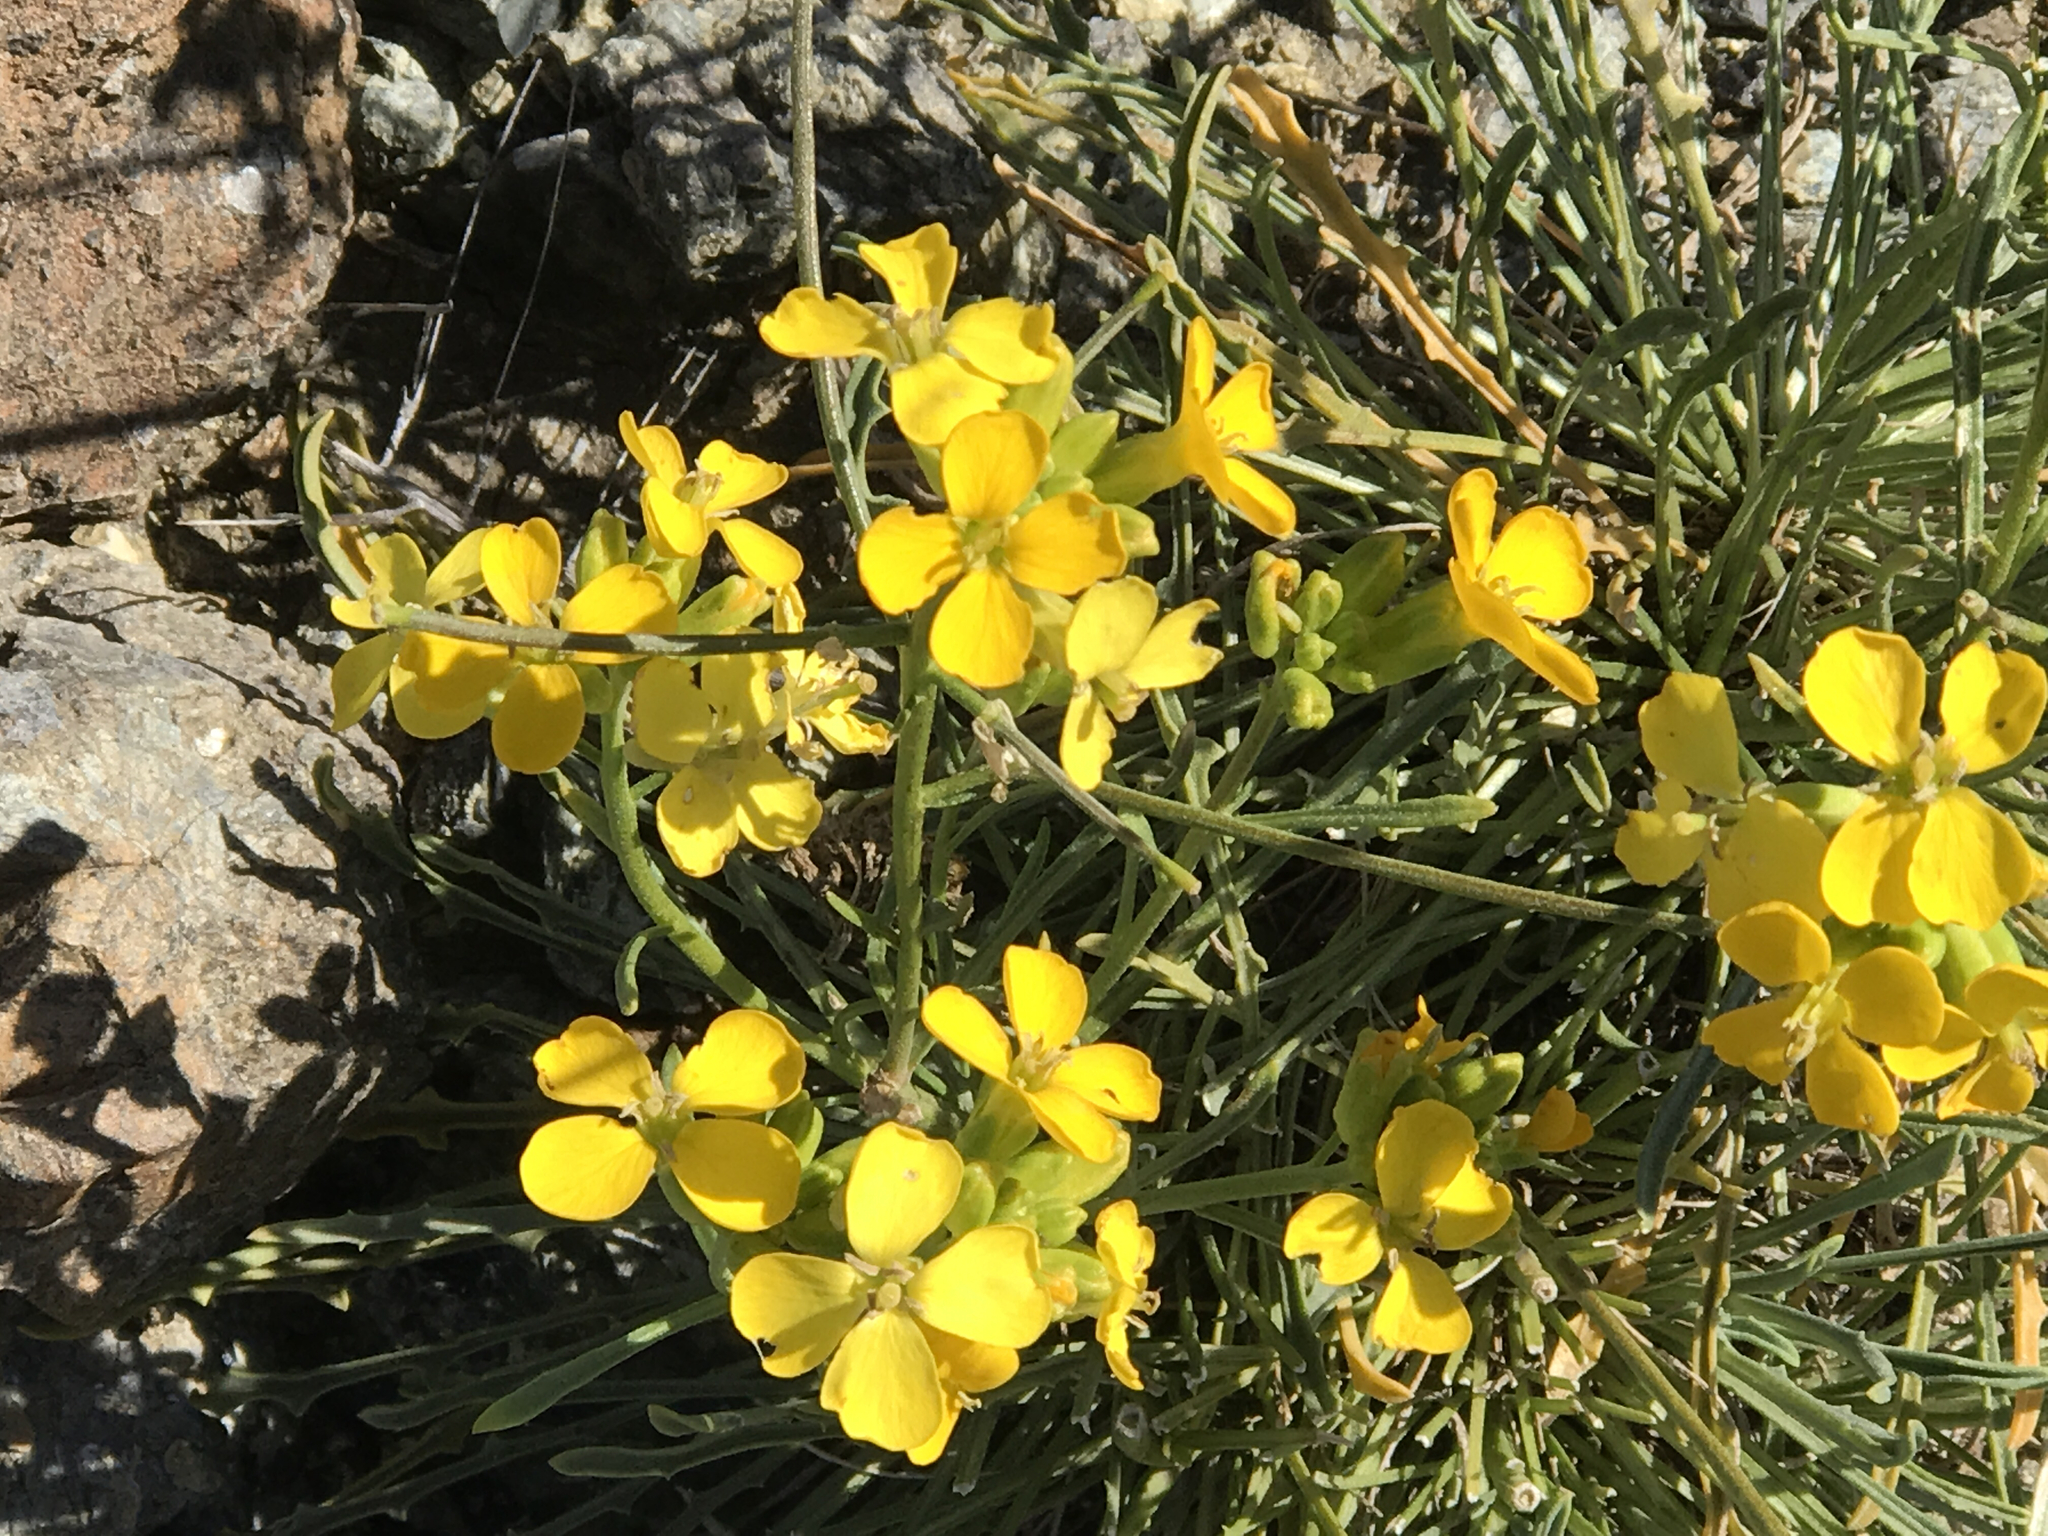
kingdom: Plantae
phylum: Tracheophyta
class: Magnoliopsida
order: Brassicales
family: Brassicaceae
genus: Erysimum
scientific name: Erysimum franciscanum
